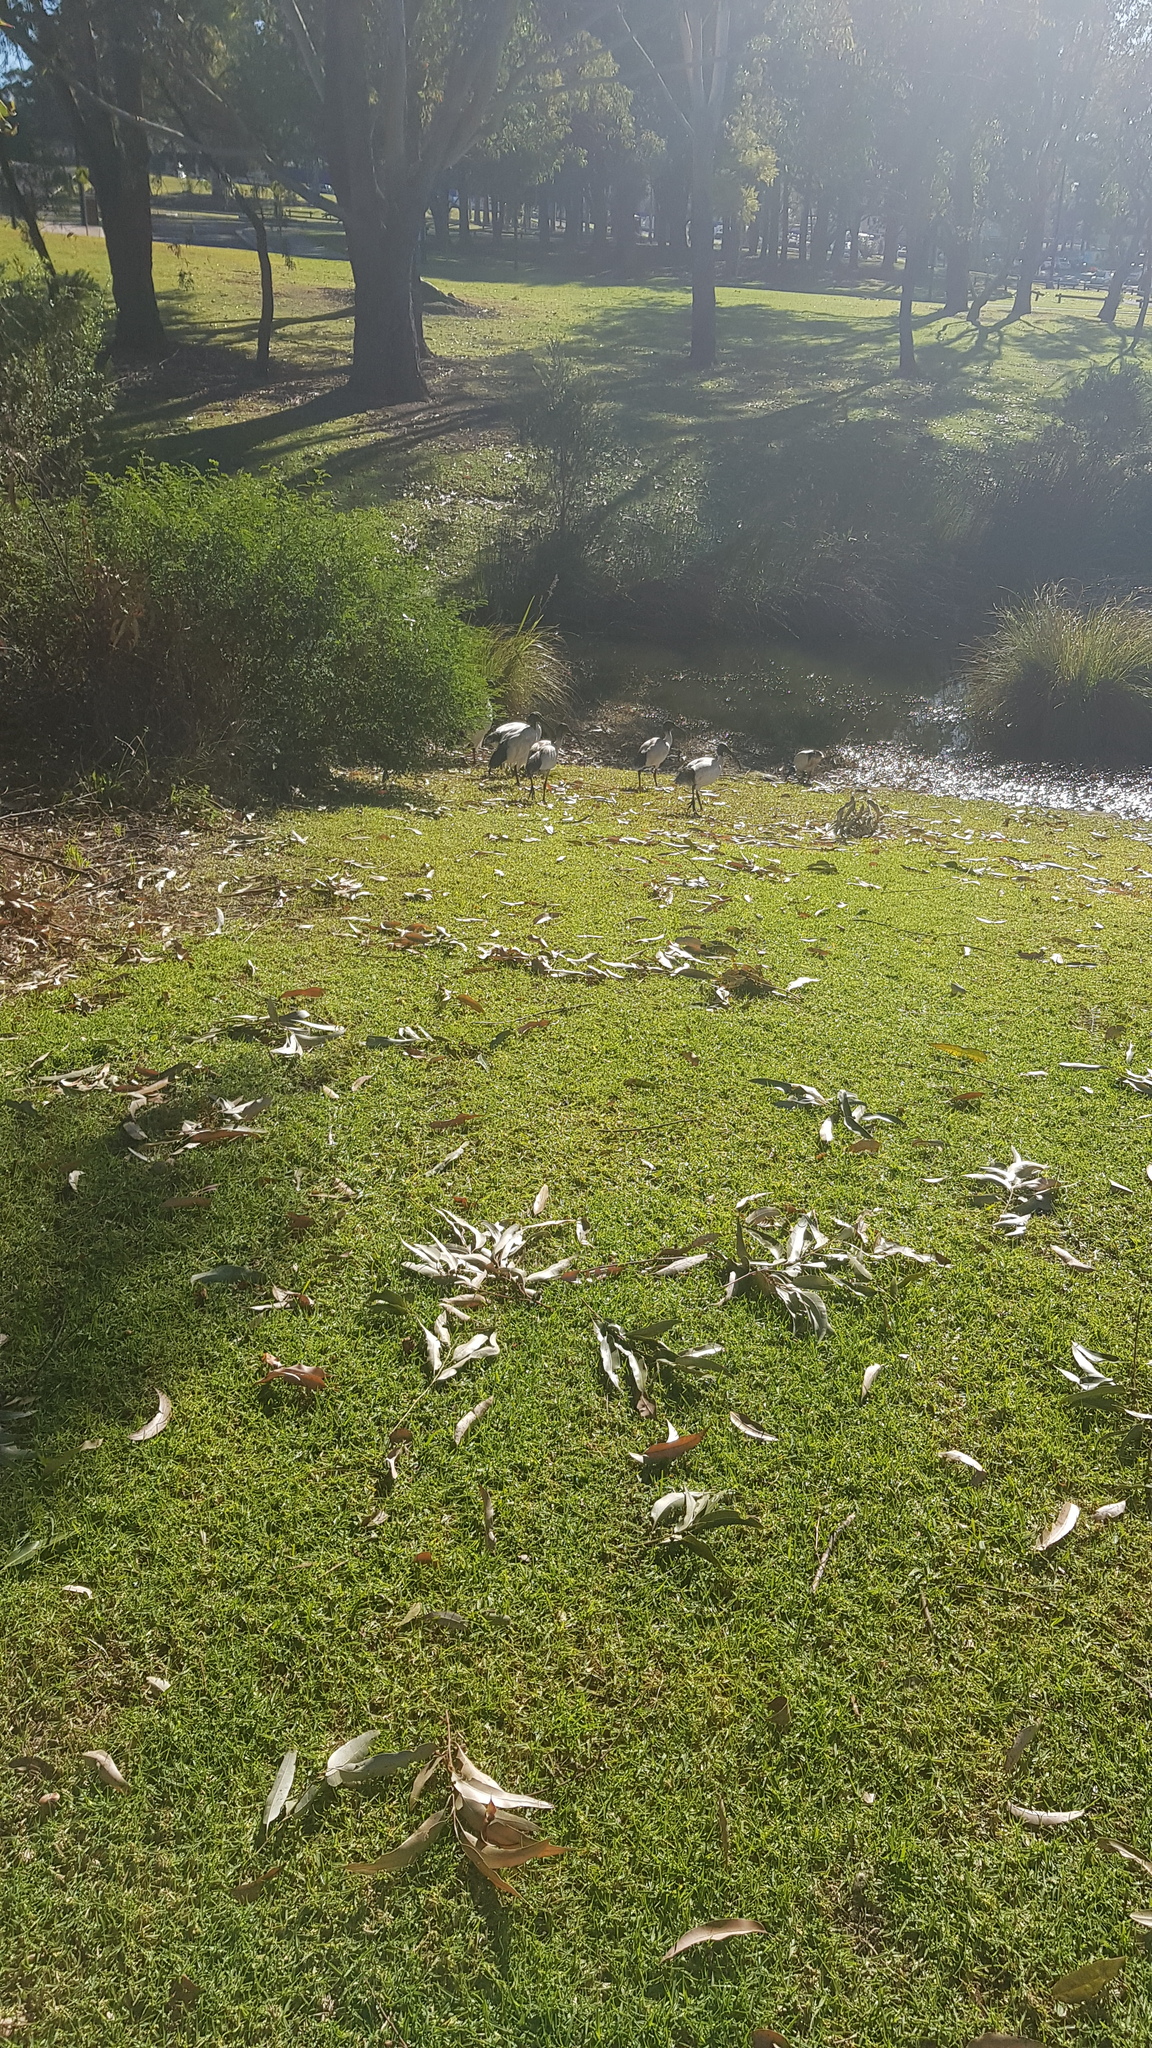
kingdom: Animalia
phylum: Chordata
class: Aves
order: Pelecaniformes
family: Threskiornithidae
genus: Threskiornis
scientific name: Threskiornis molucca
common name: Australian white ibis
